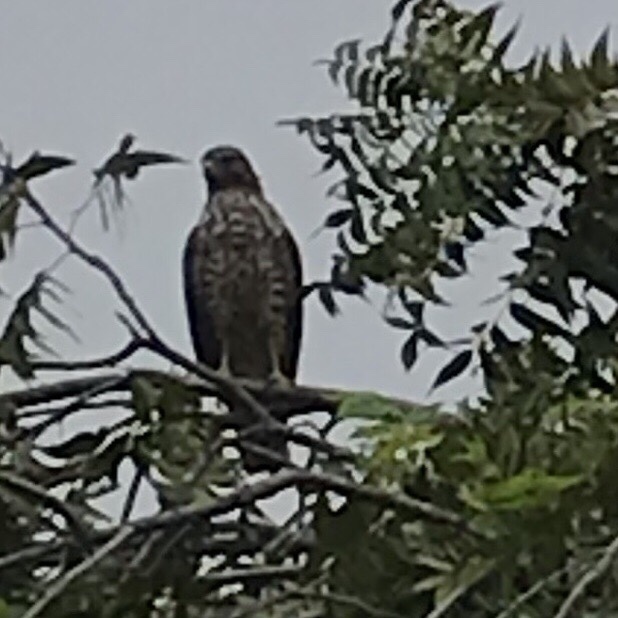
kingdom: Animalia
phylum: Chordata
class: Aves
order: Accipitriformes
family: Accipitridae
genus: Buteo
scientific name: Buteo lineatus
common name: Red-shouldered hawk
